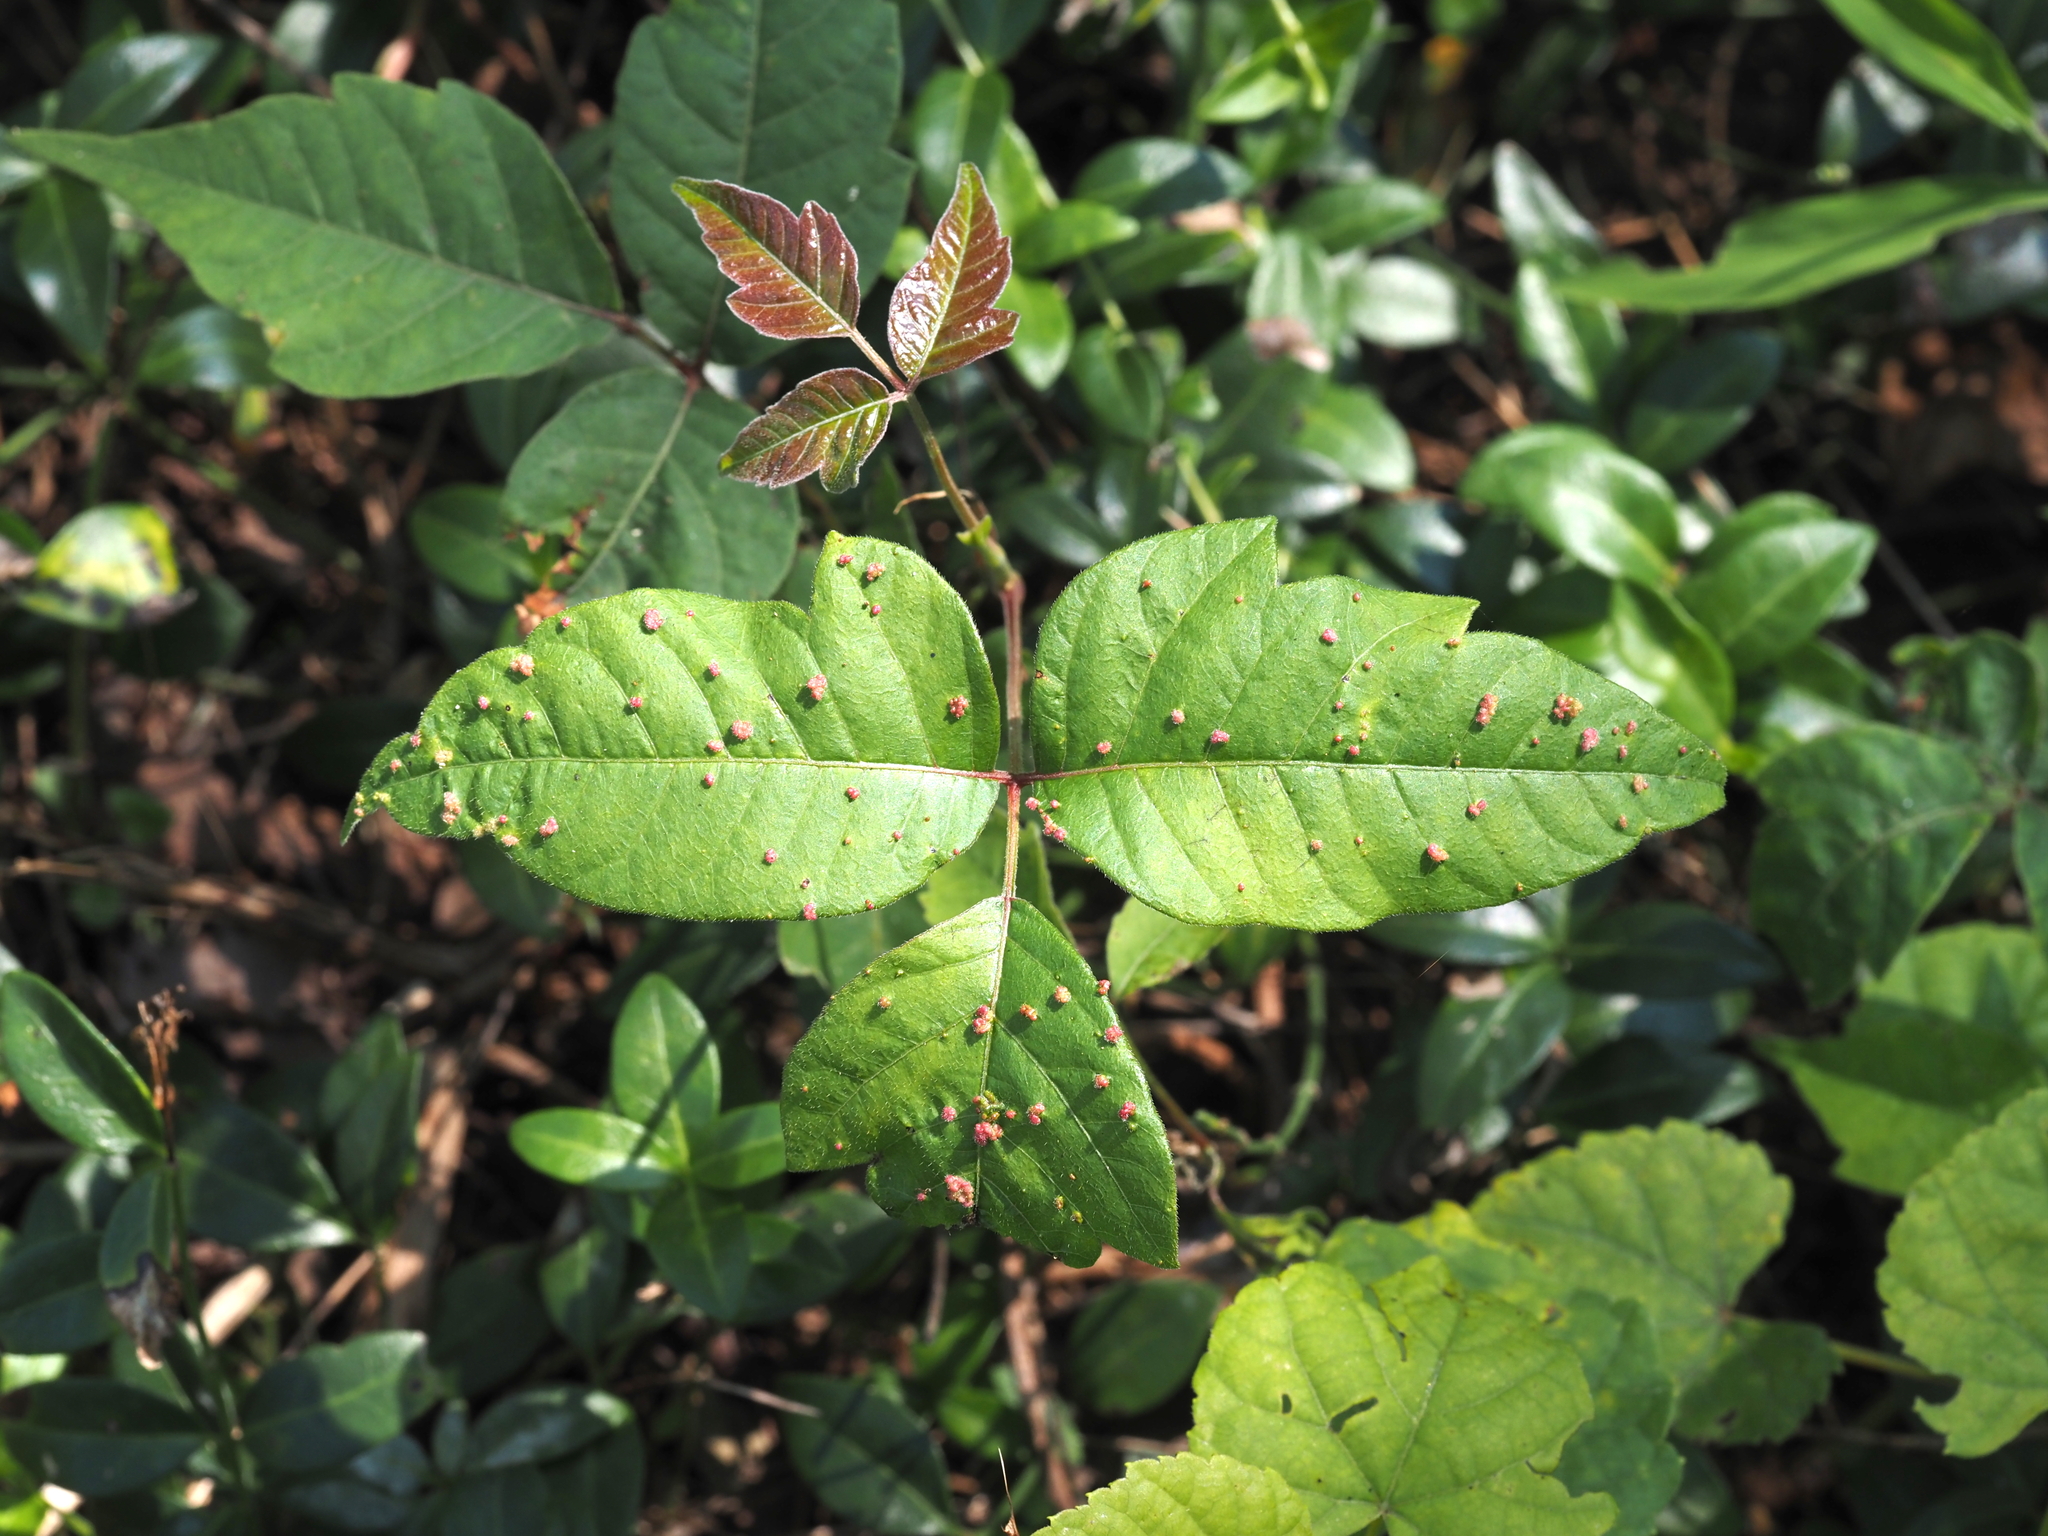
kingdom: Animalia
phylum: Arthropoda
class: Arachnida
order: Trombidiformes
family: Eriophyidae
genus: Aculops
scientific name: Aculops
